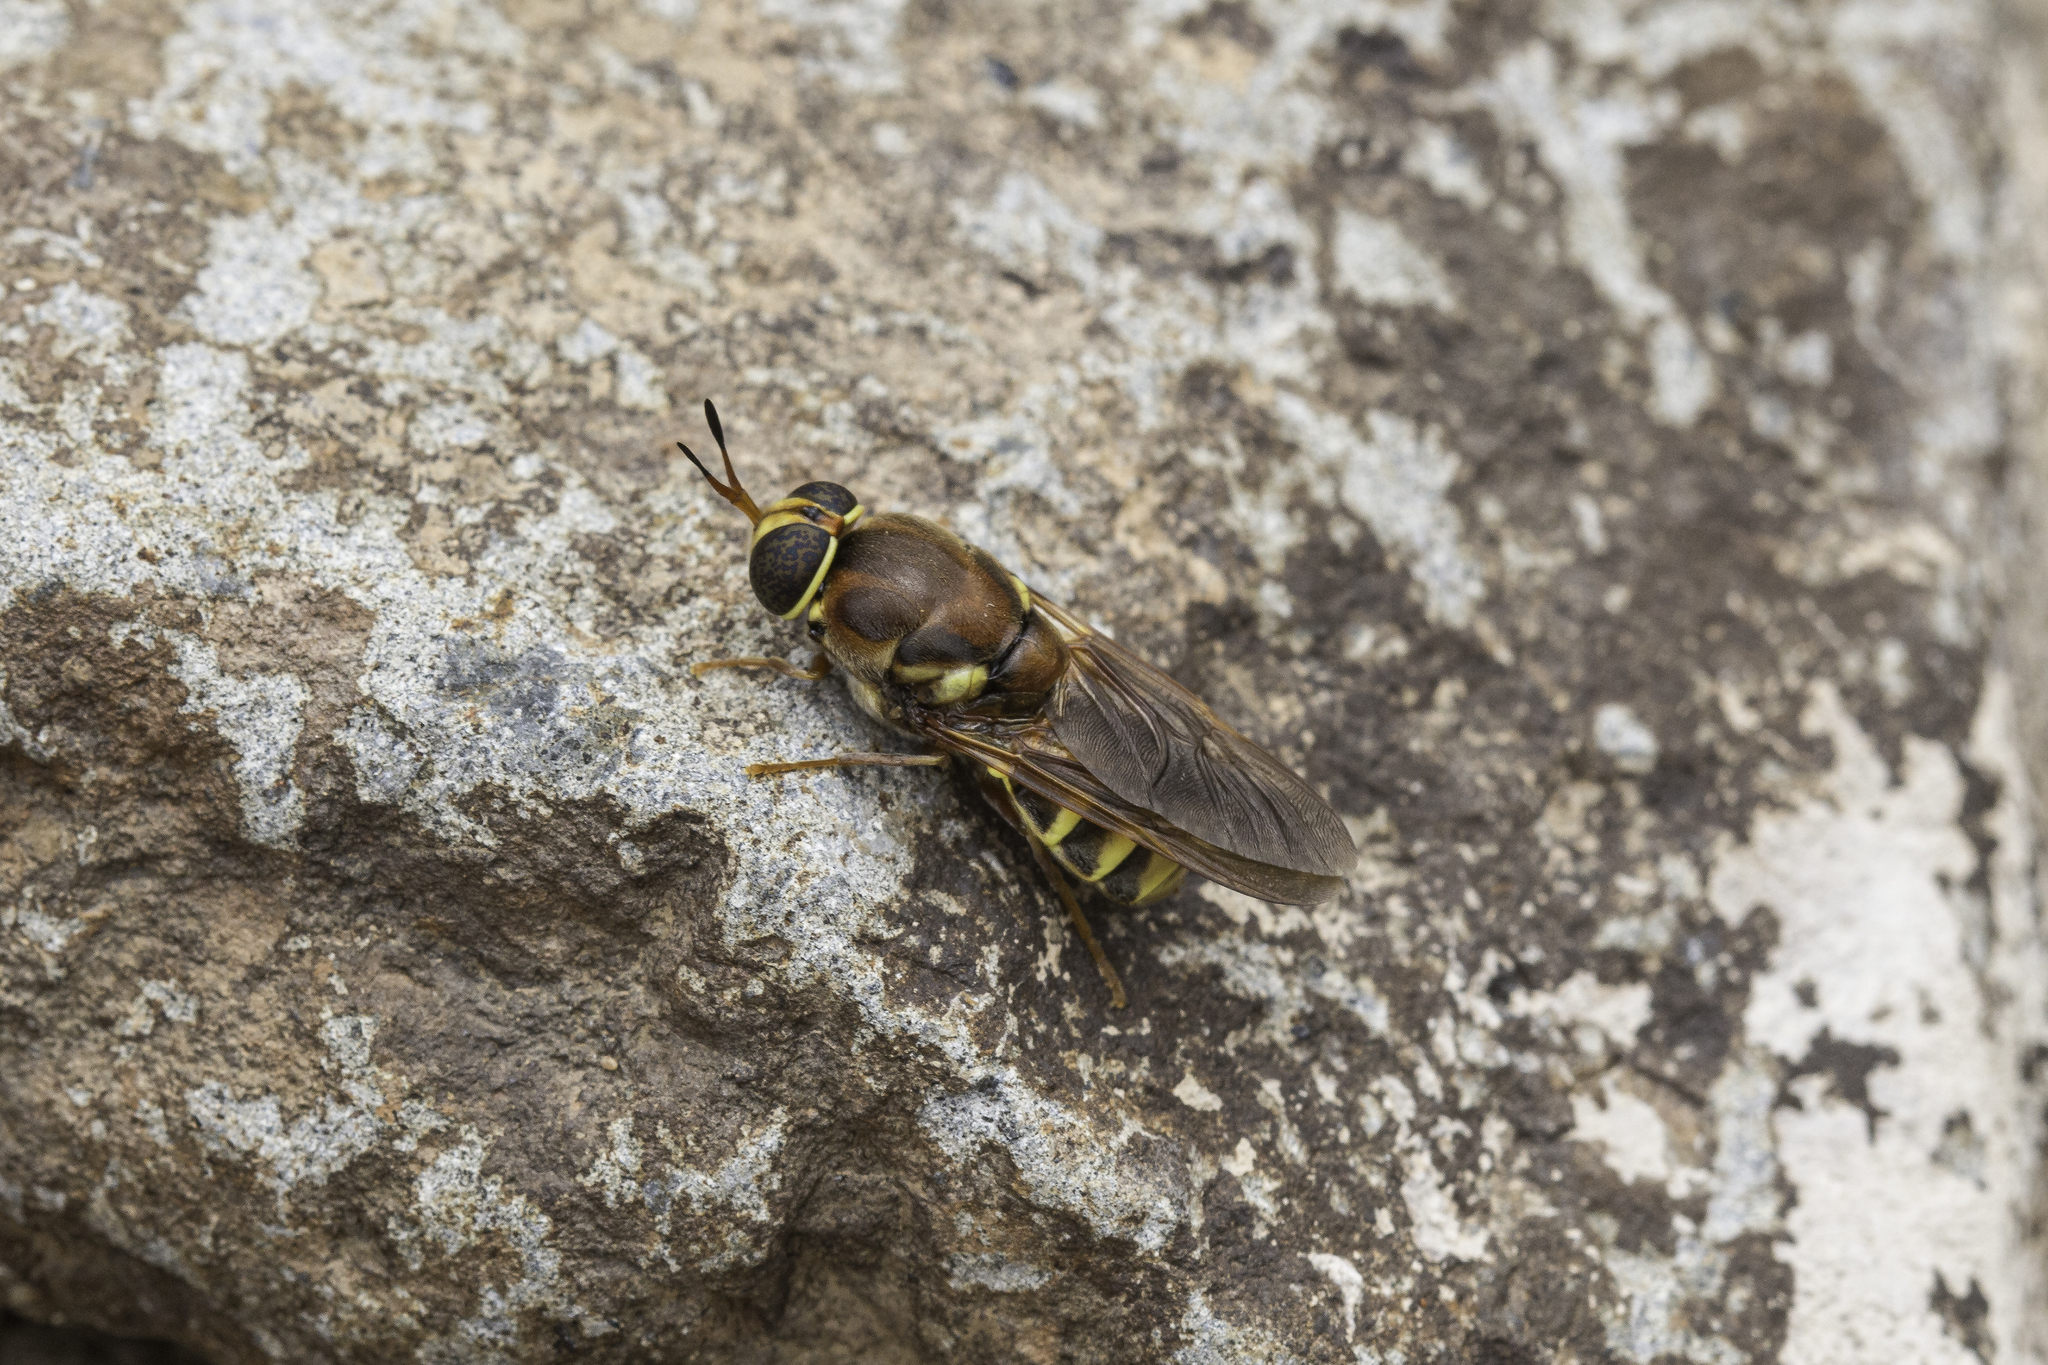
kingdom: Animalia
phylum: Arthropoda
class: Insecta
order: Diptera
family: Stratiomyidae
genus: Hermetia
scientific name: Hermetia hunteri
